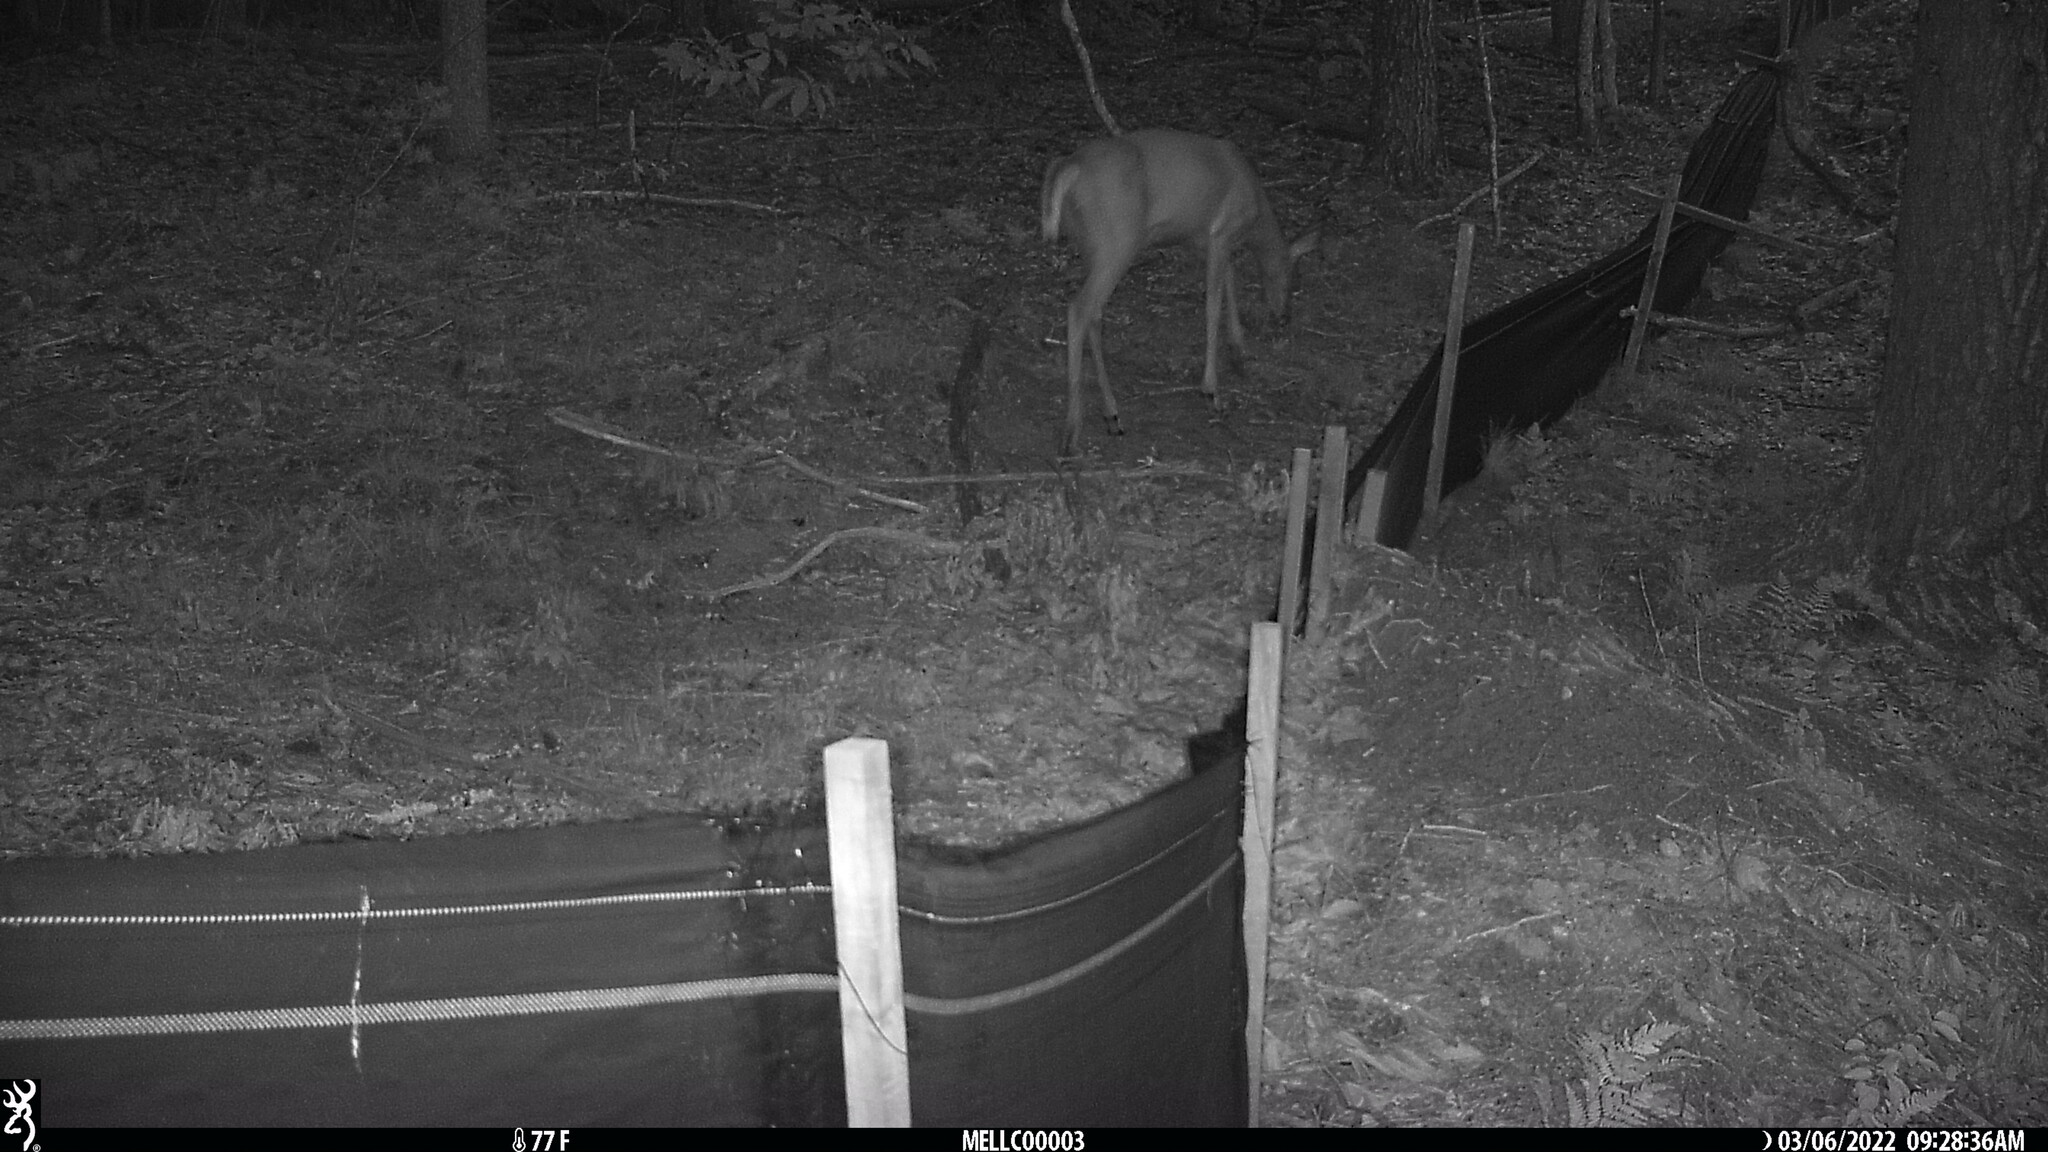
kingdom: Animalia
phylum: Chordata
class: Mammalia
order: Artiodactyla
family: Cervidae
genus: Odocoileus
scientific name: Odocoileus virginianus
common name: White-tailed deer
